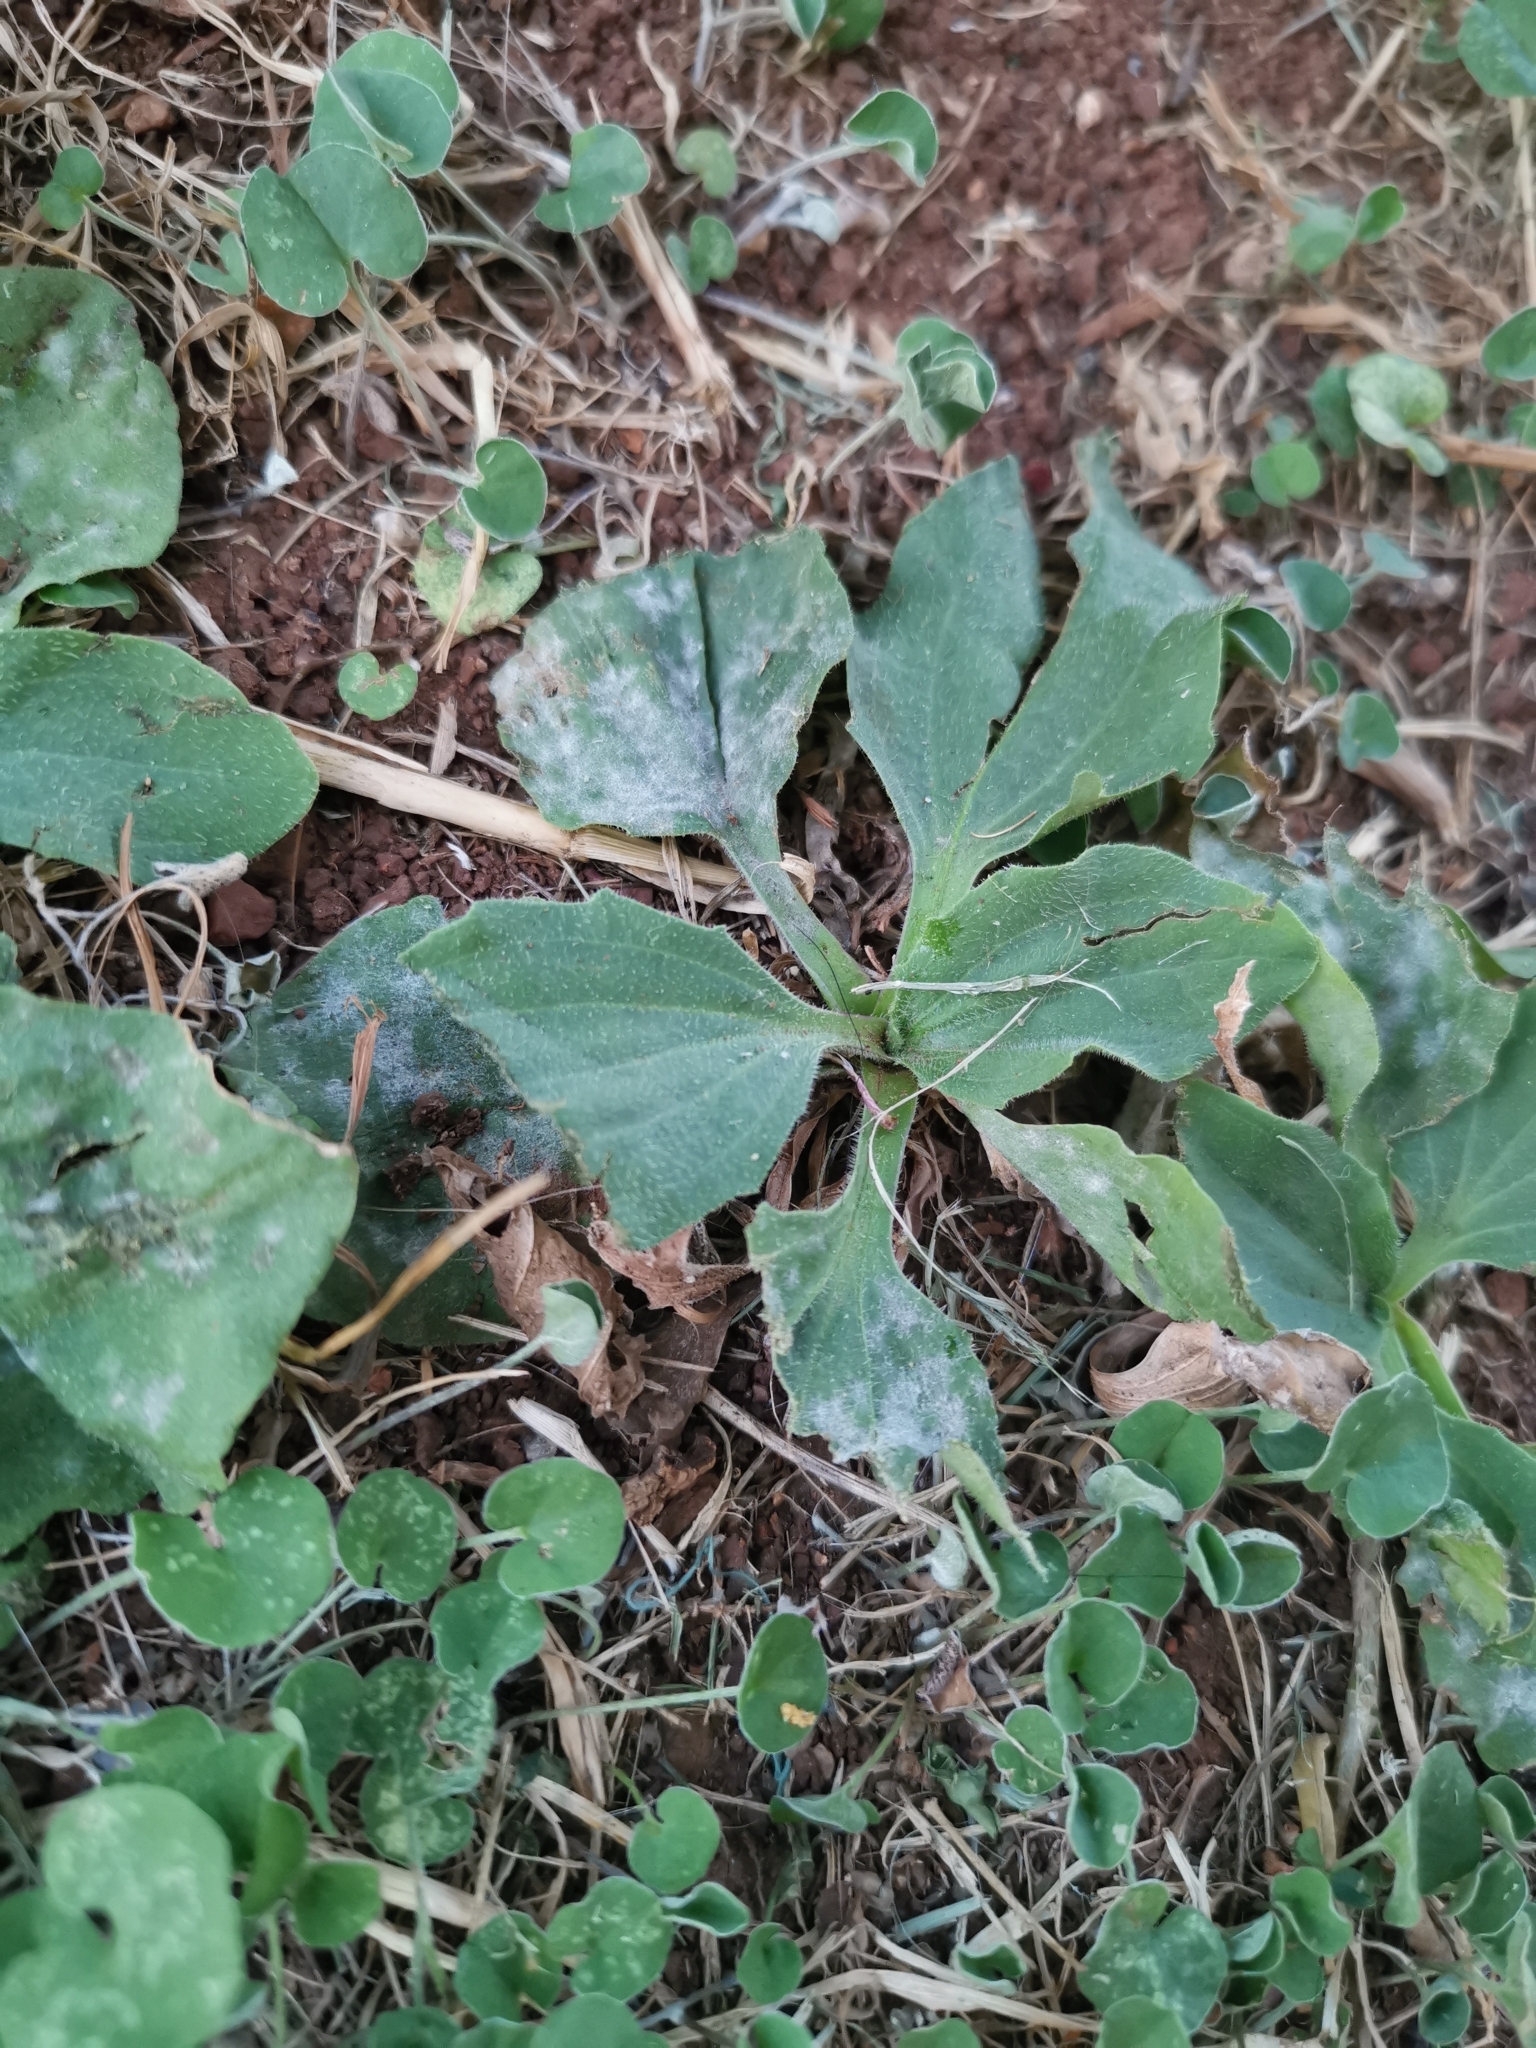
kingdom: Plantae
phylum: Tracheophyta
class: Magnoliopsida
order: Lamiales
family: Plantaginaceae
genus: Plantago
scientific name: Plantago major
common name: Common plantain
